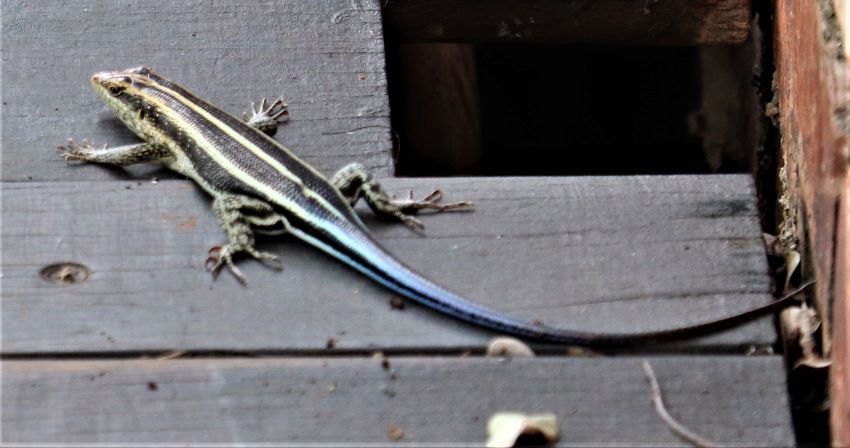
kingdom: Animalia
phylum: Chordata
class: Squamata
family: Scincidae
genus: Trachylepis
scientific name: Trachylepis margaritifera
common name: Rainbow skink
